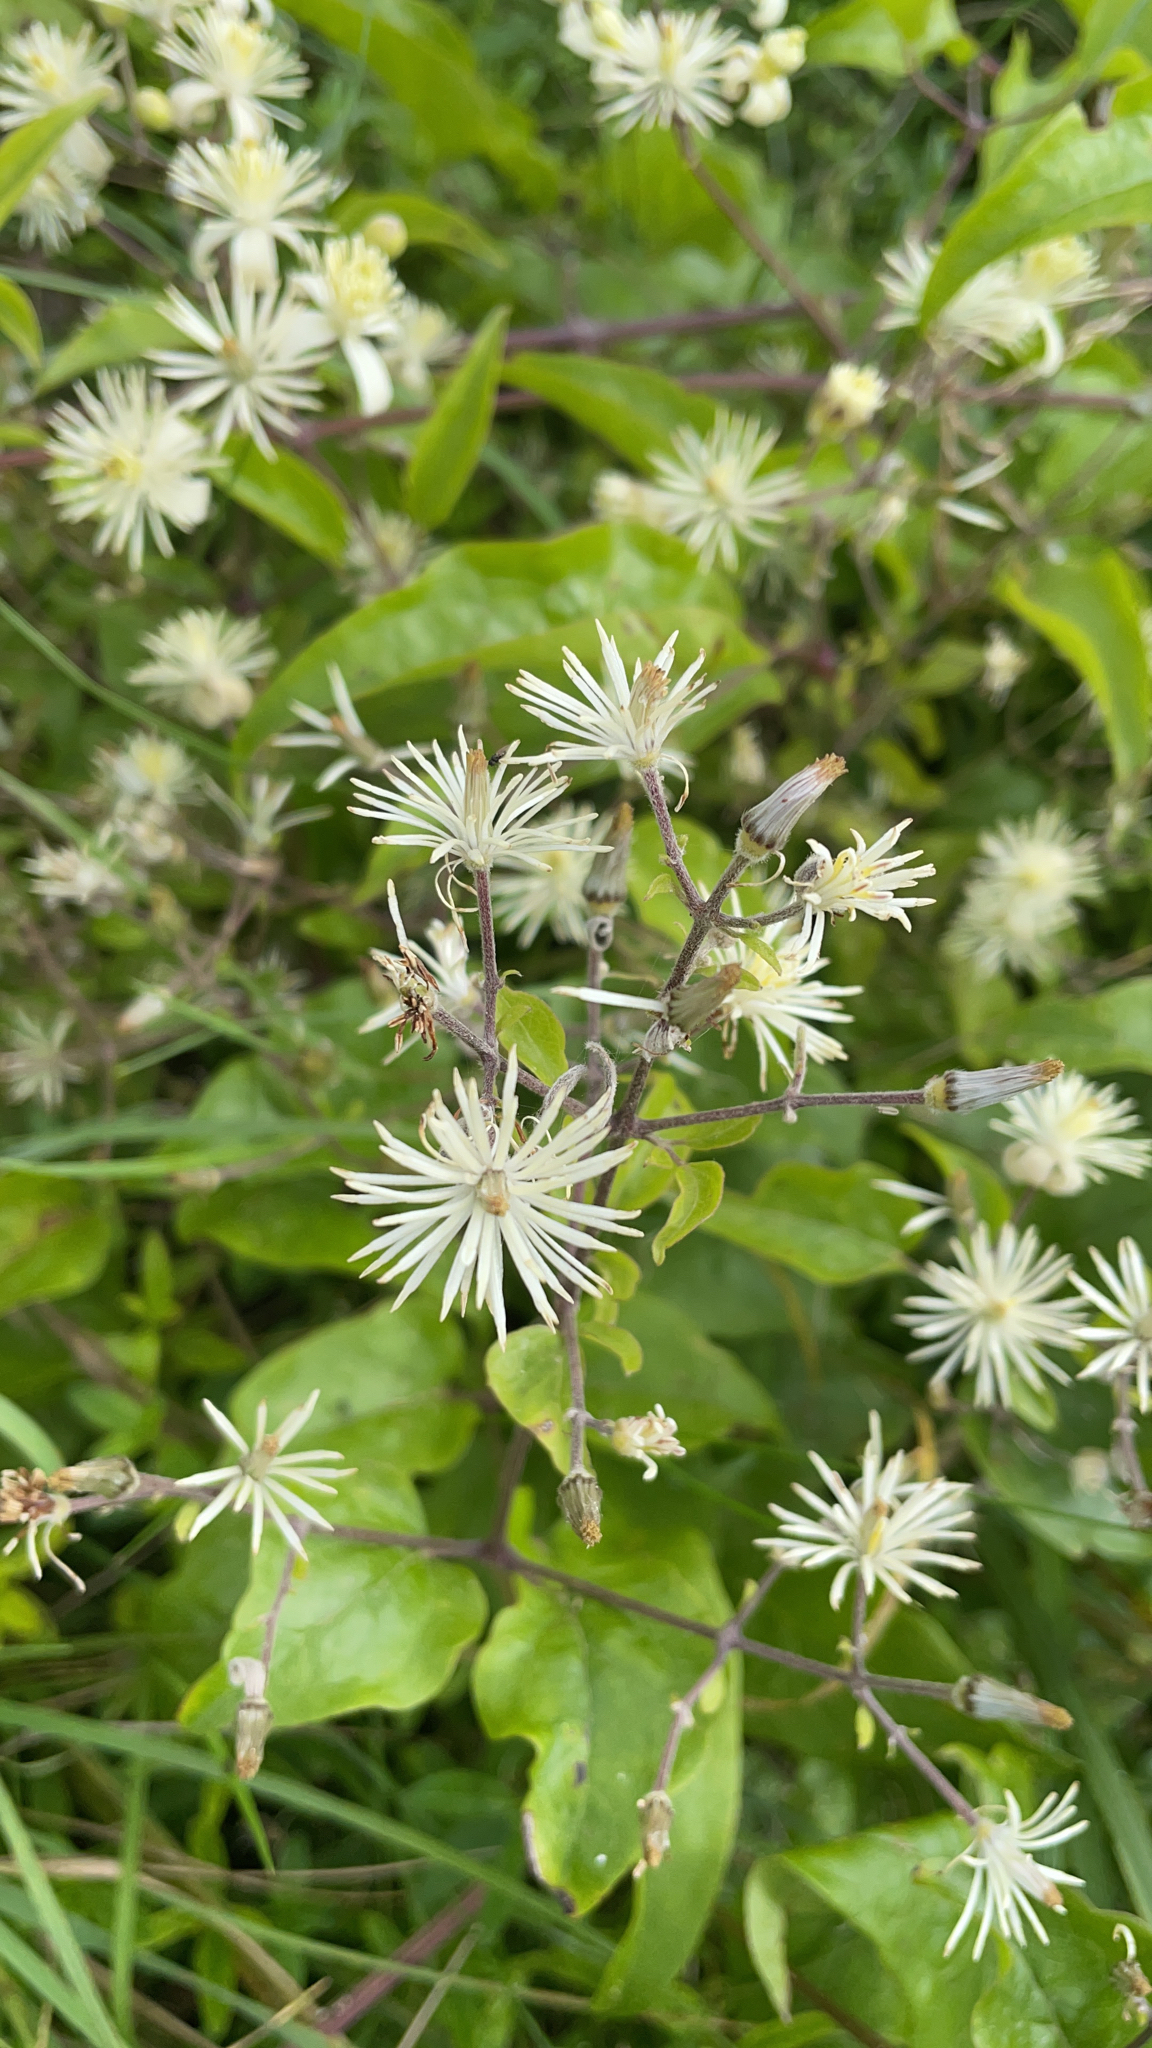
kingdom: Plantae
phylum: Tracheophyta
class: Magnoliopsida
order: Ranunculales
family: Ranunculaceae
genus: Clematis
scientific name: Clematis vitalba
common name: Evergreen clematis
